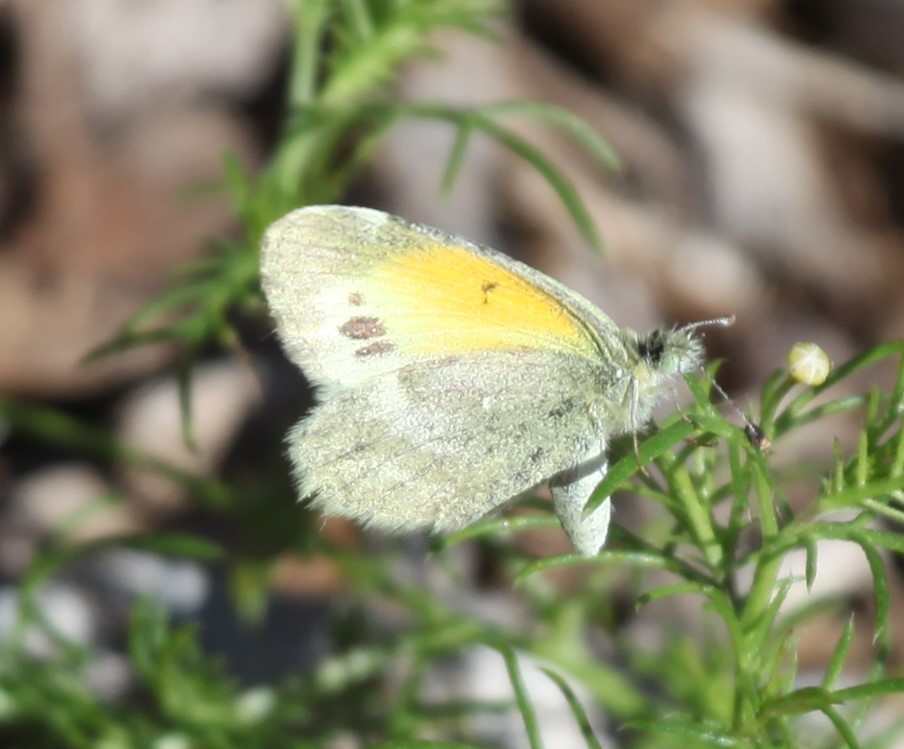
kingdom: Animalia
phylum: Arthropoda
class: Insecta
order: Lepidoptera
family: Pieridae
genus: Nathalis
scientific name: Nathalis iole
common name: Dainty sulphur
